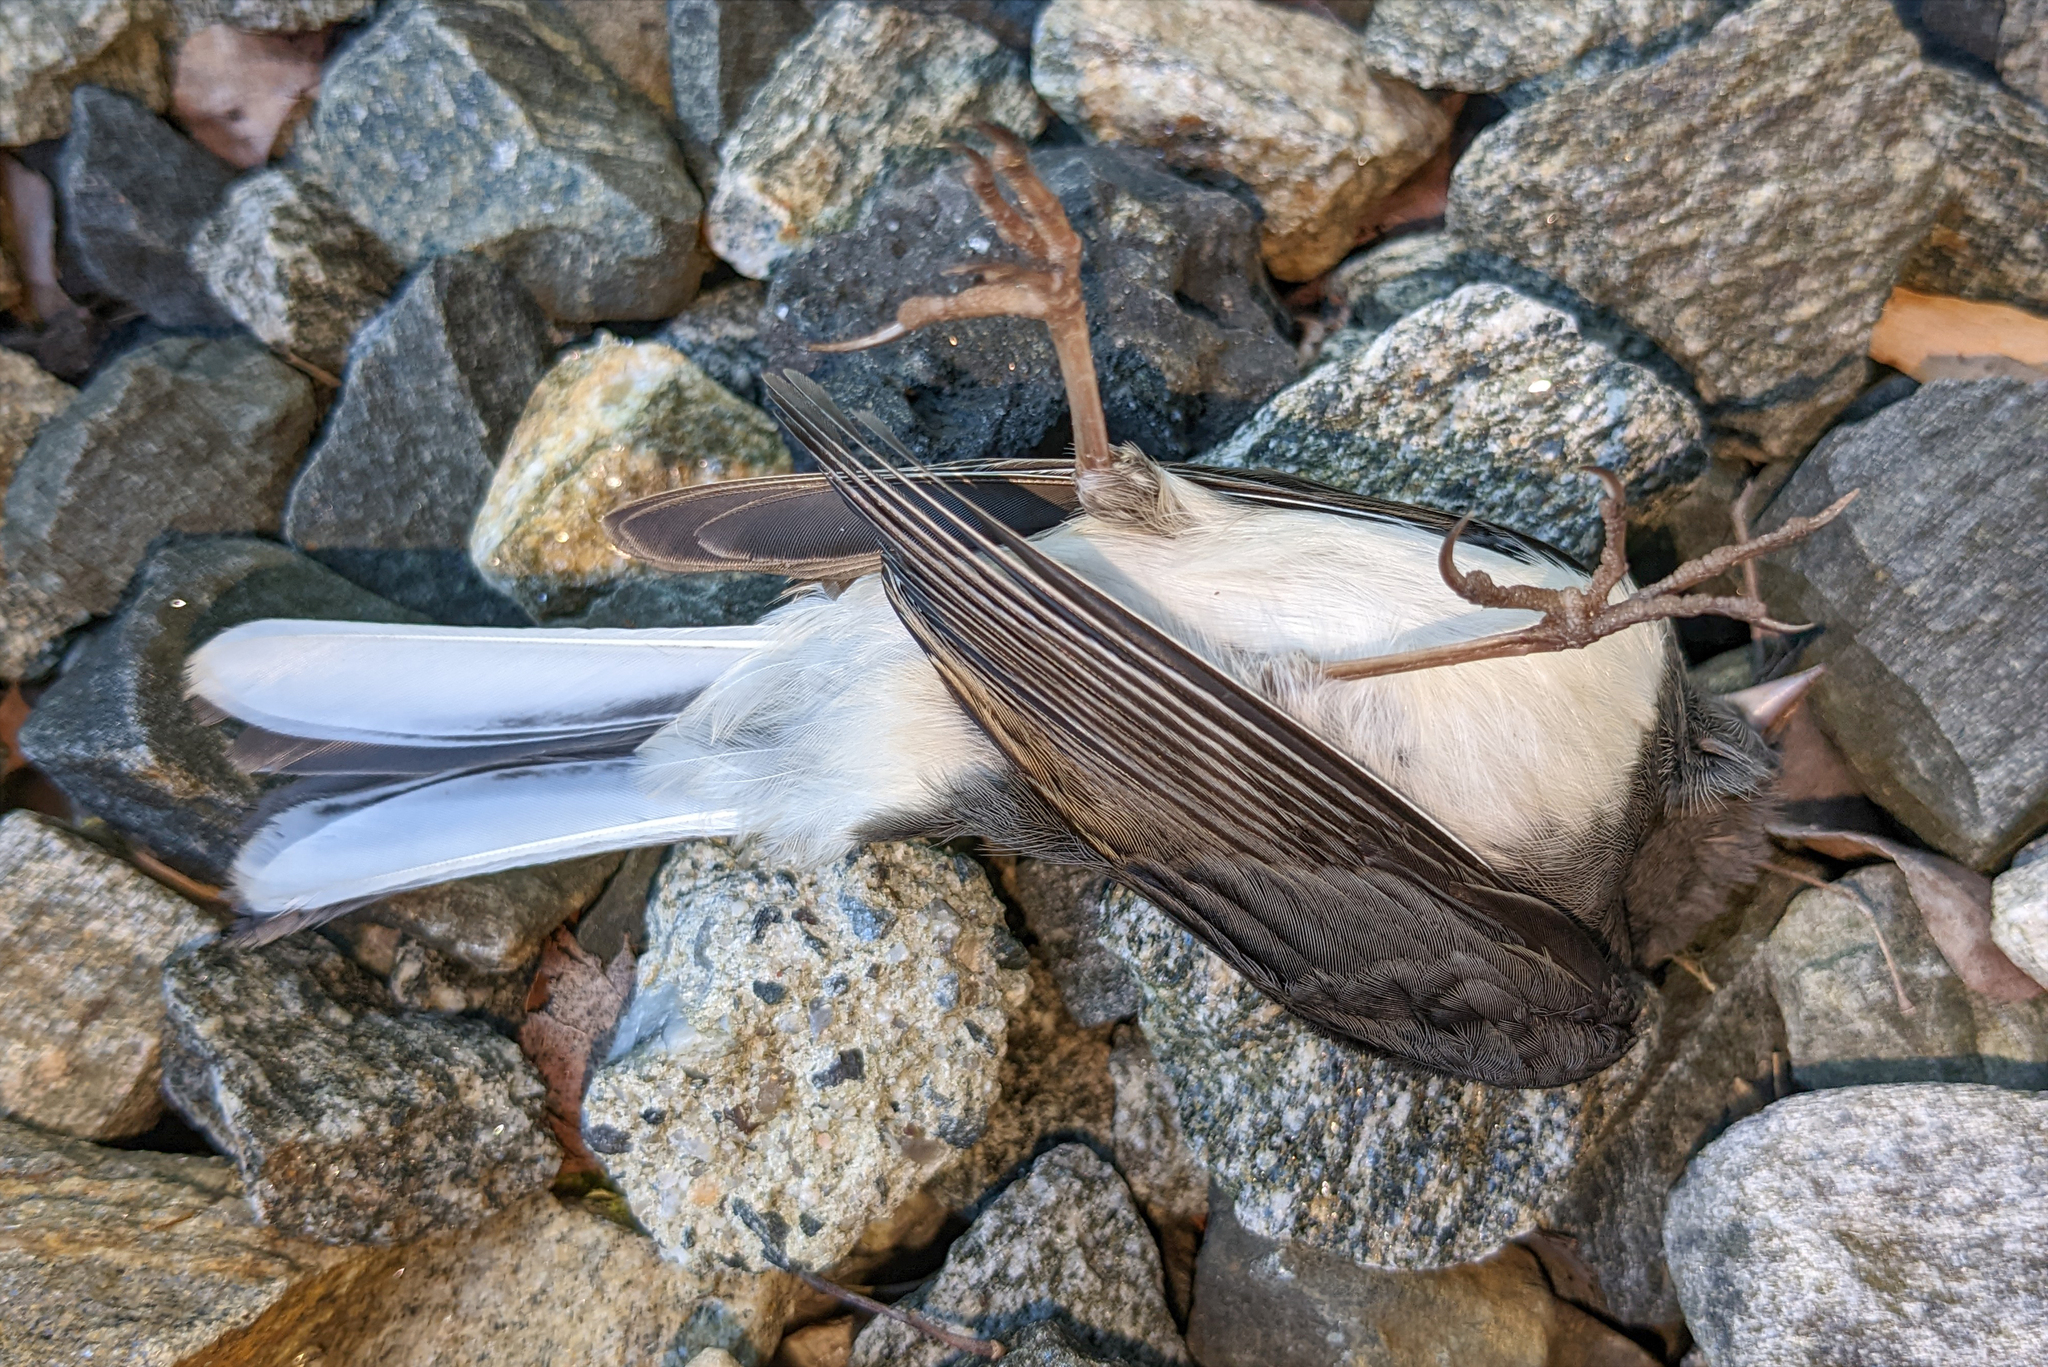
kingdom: Animalia
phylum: Chordata
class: Aves
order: Passeriformes
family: Passerellidae
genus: Junco
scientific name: Junco hyemalis
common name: Dark-eyed junco
